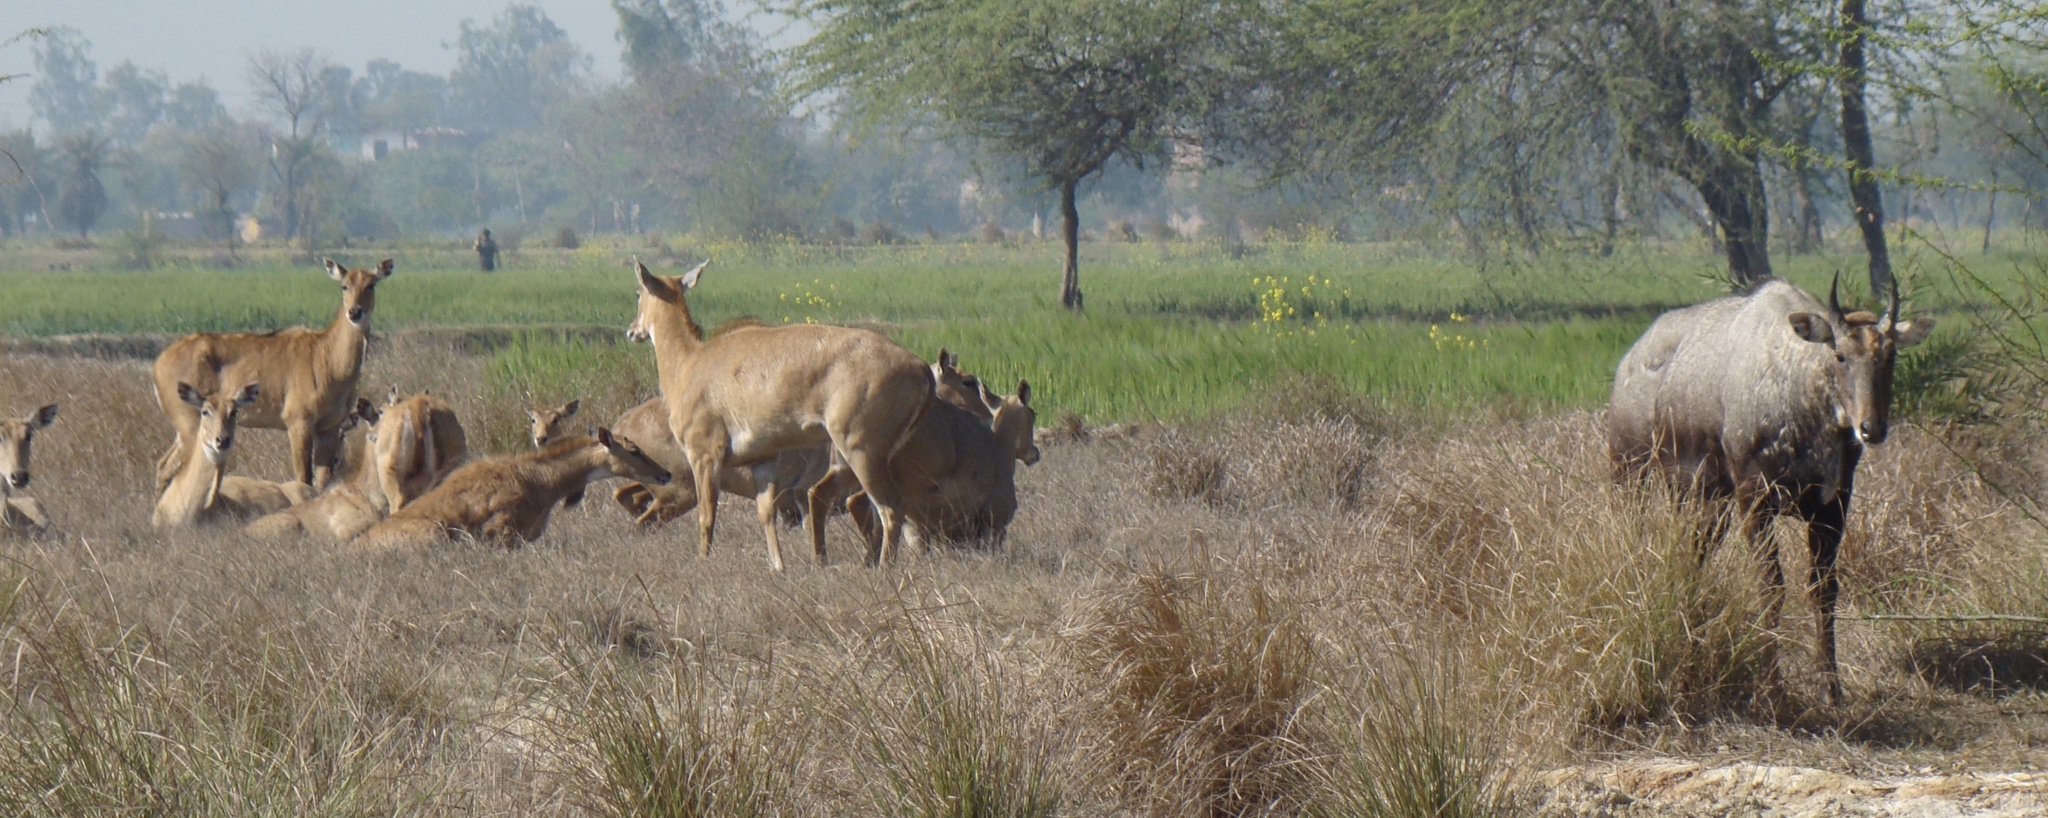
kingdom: Animalia
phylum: Chordata
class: Mammalia
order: Artiodactyla
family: Bovidae
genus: Boselaphus
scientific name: Boselaphus tragocamelus
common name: Nilgai
